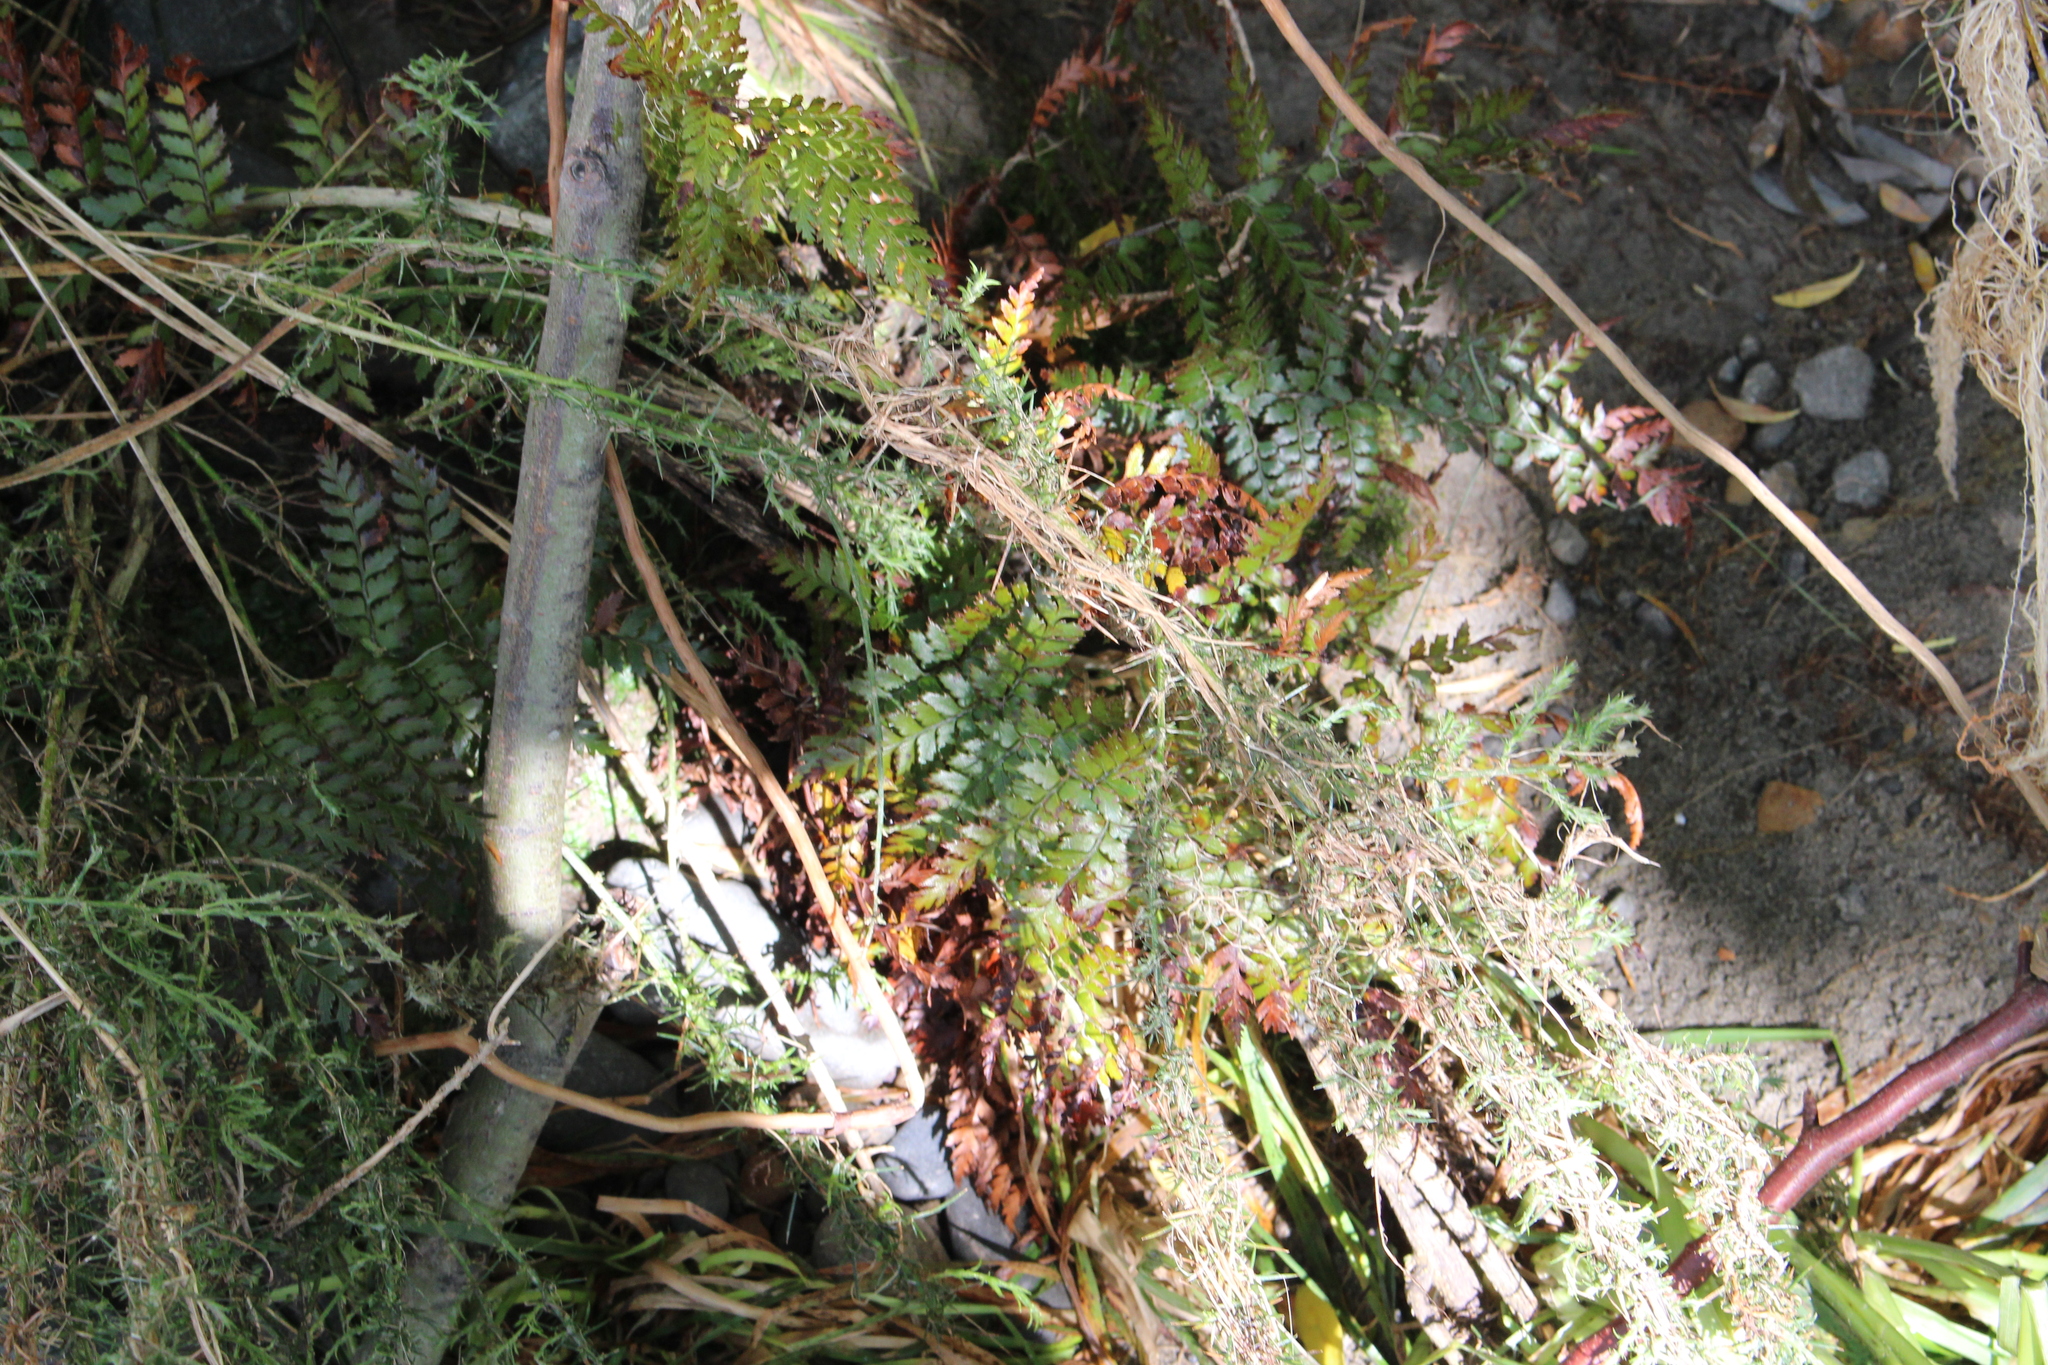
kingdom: Plantae
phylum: Tracheophyta
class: Polypodiopsida
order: Polypodiales
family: Dryopteridaceae
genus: Polystichum
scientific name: Polystichum oculatum
